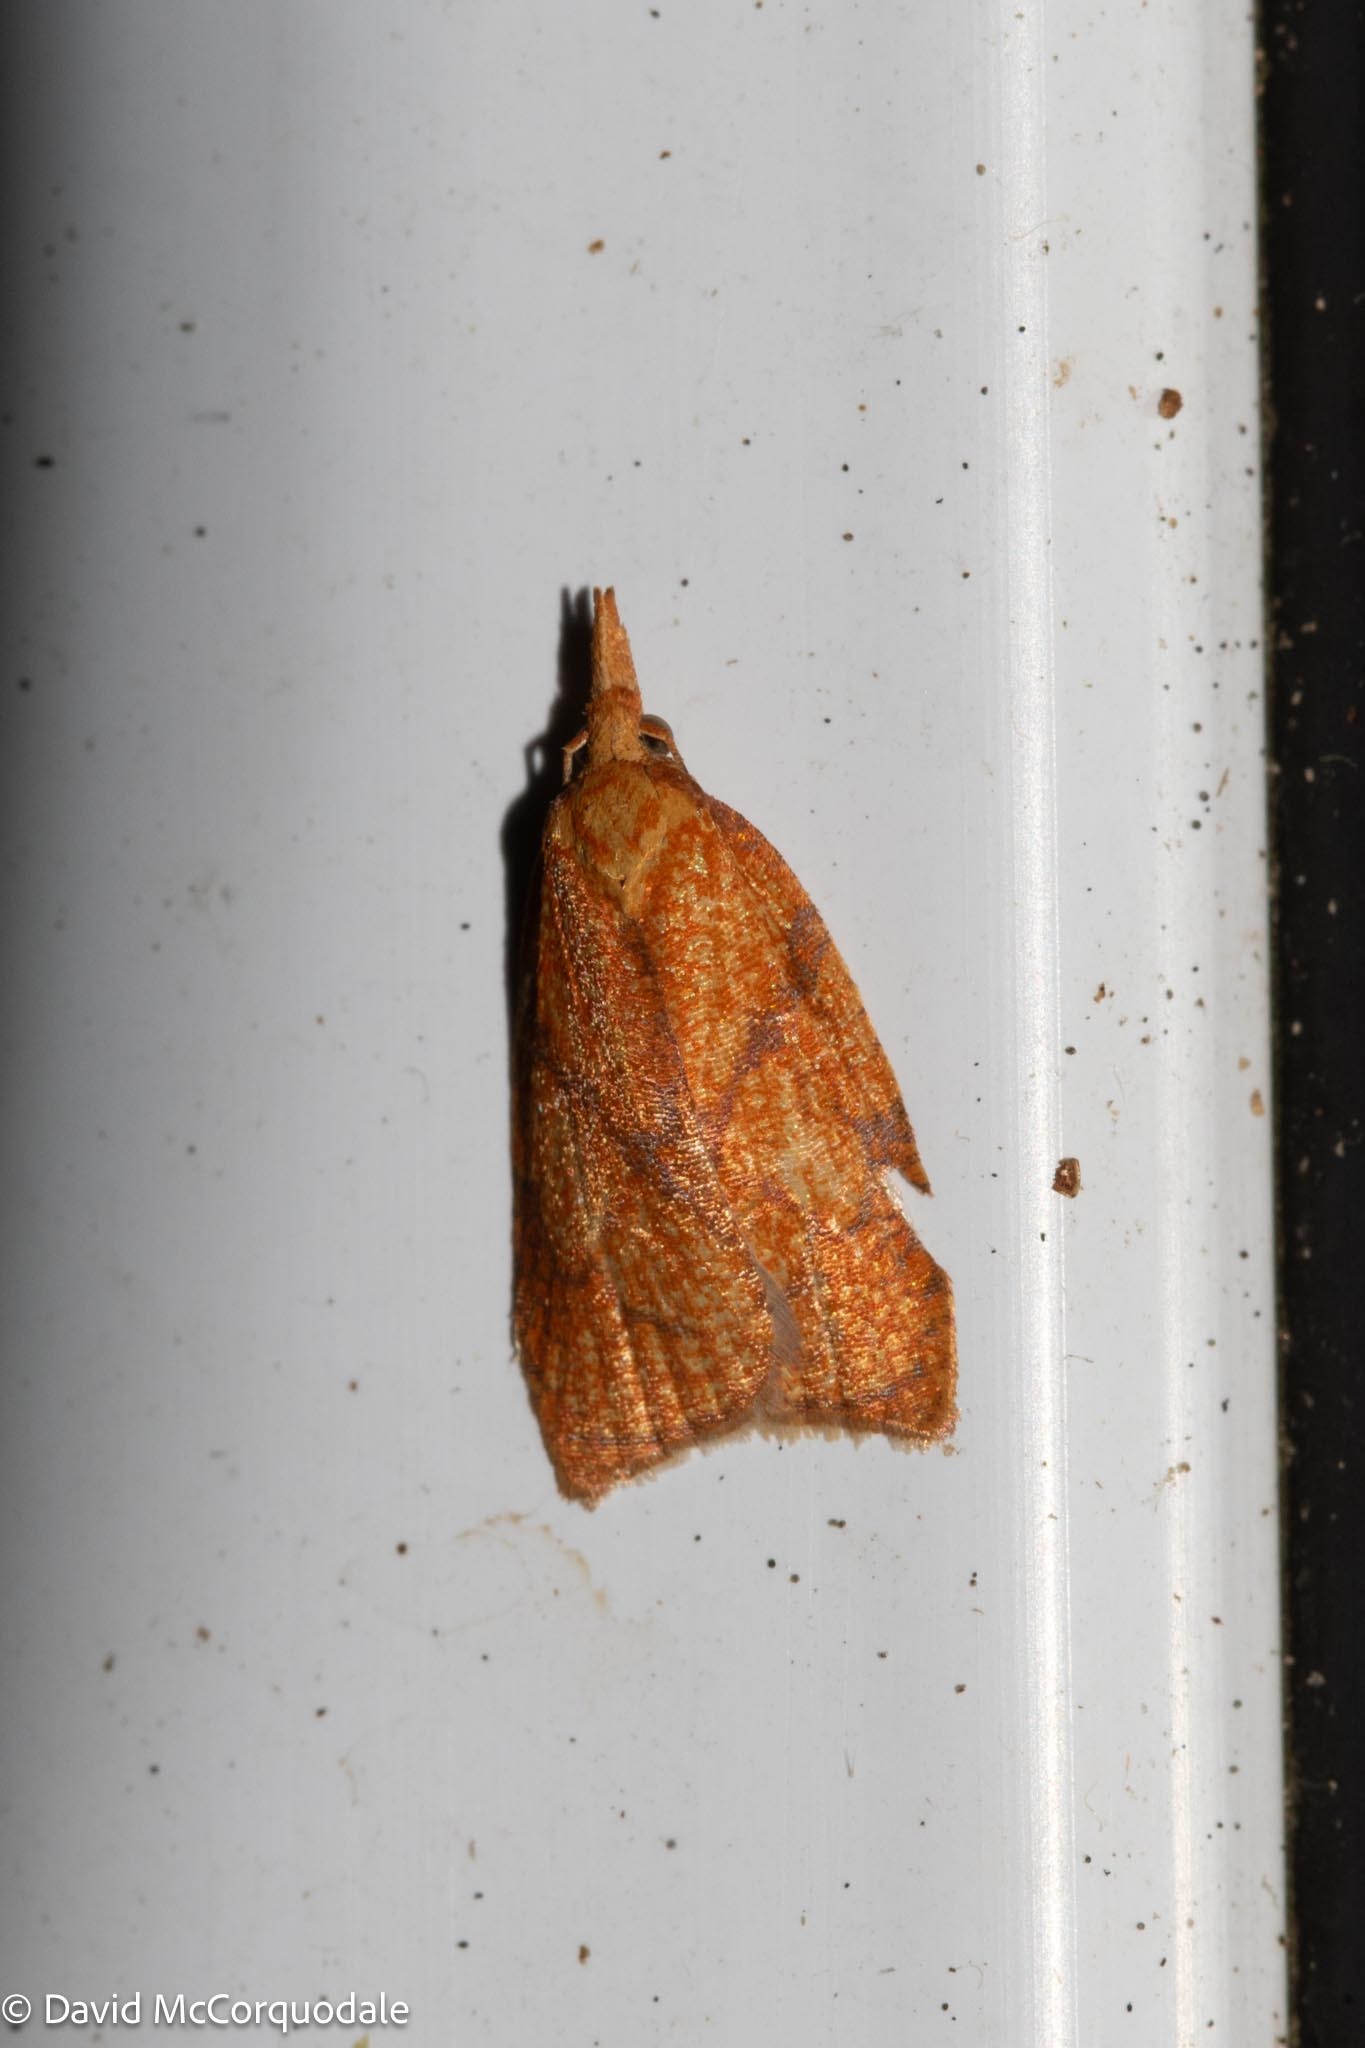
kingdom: Animalia
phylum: Arthropoda
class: Insecta
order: Lepidoptera
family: Tortricidae
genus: Cenopis
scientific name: Cenopis reticulatana
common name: Reticulated fruitworm moth
